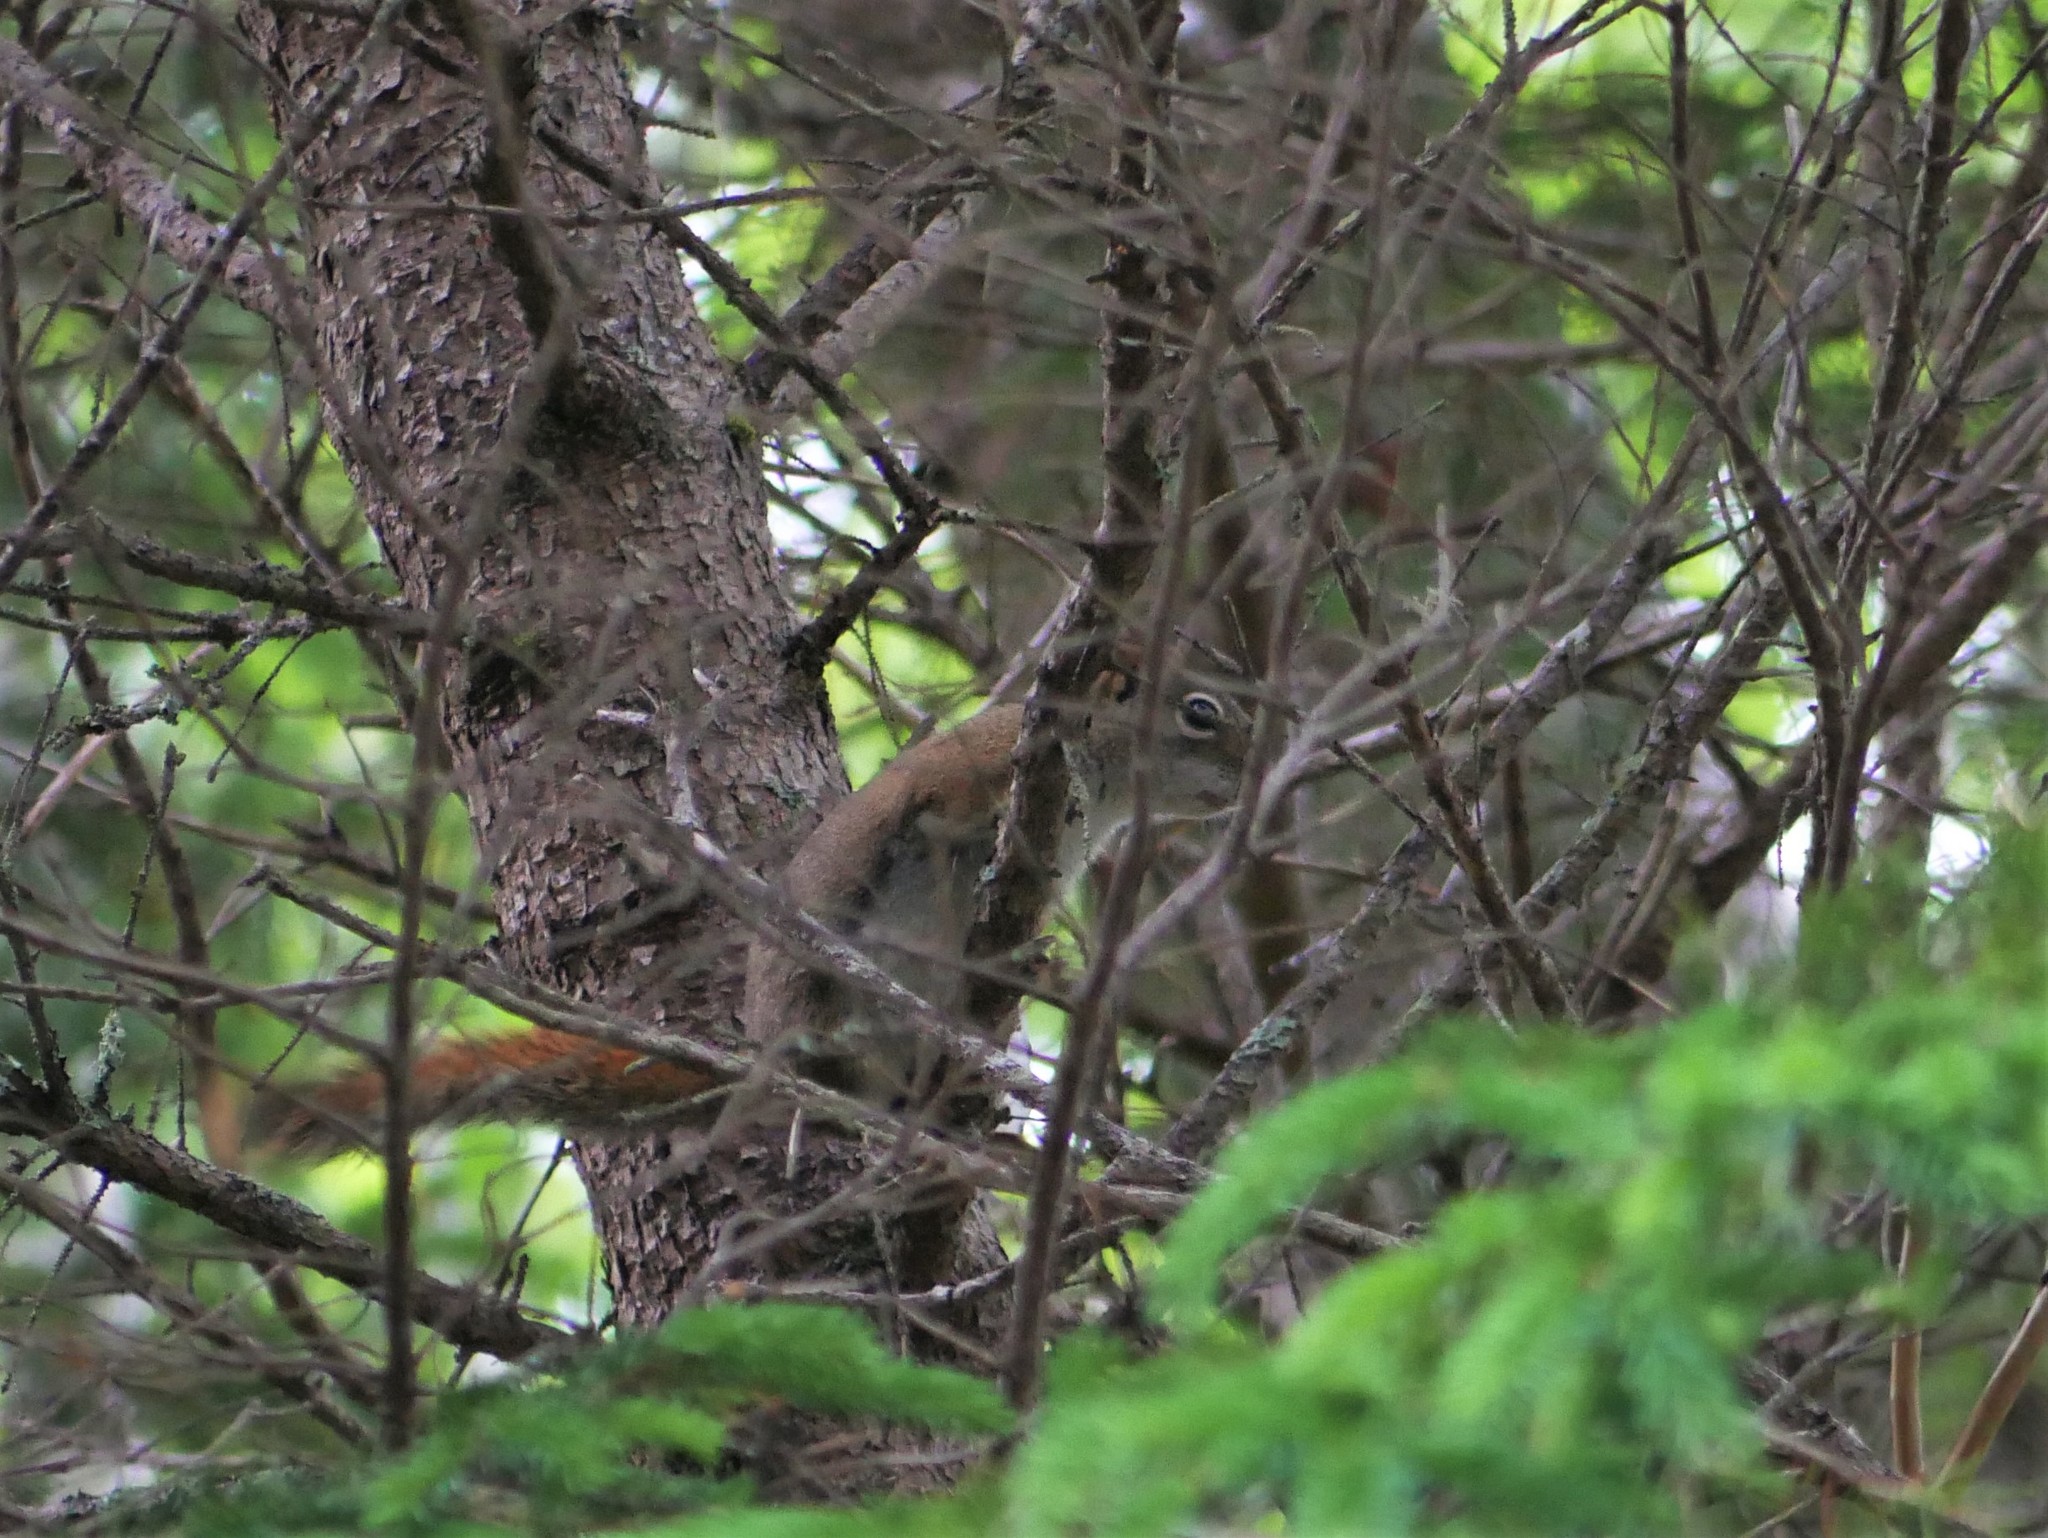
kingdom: Animalia
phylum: Chordata
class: Mammalia
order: Rodentia
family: Sciuridae
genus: Tamiasciurus
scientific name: Tamiasciurus hudsonicus
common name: Red squirrel
